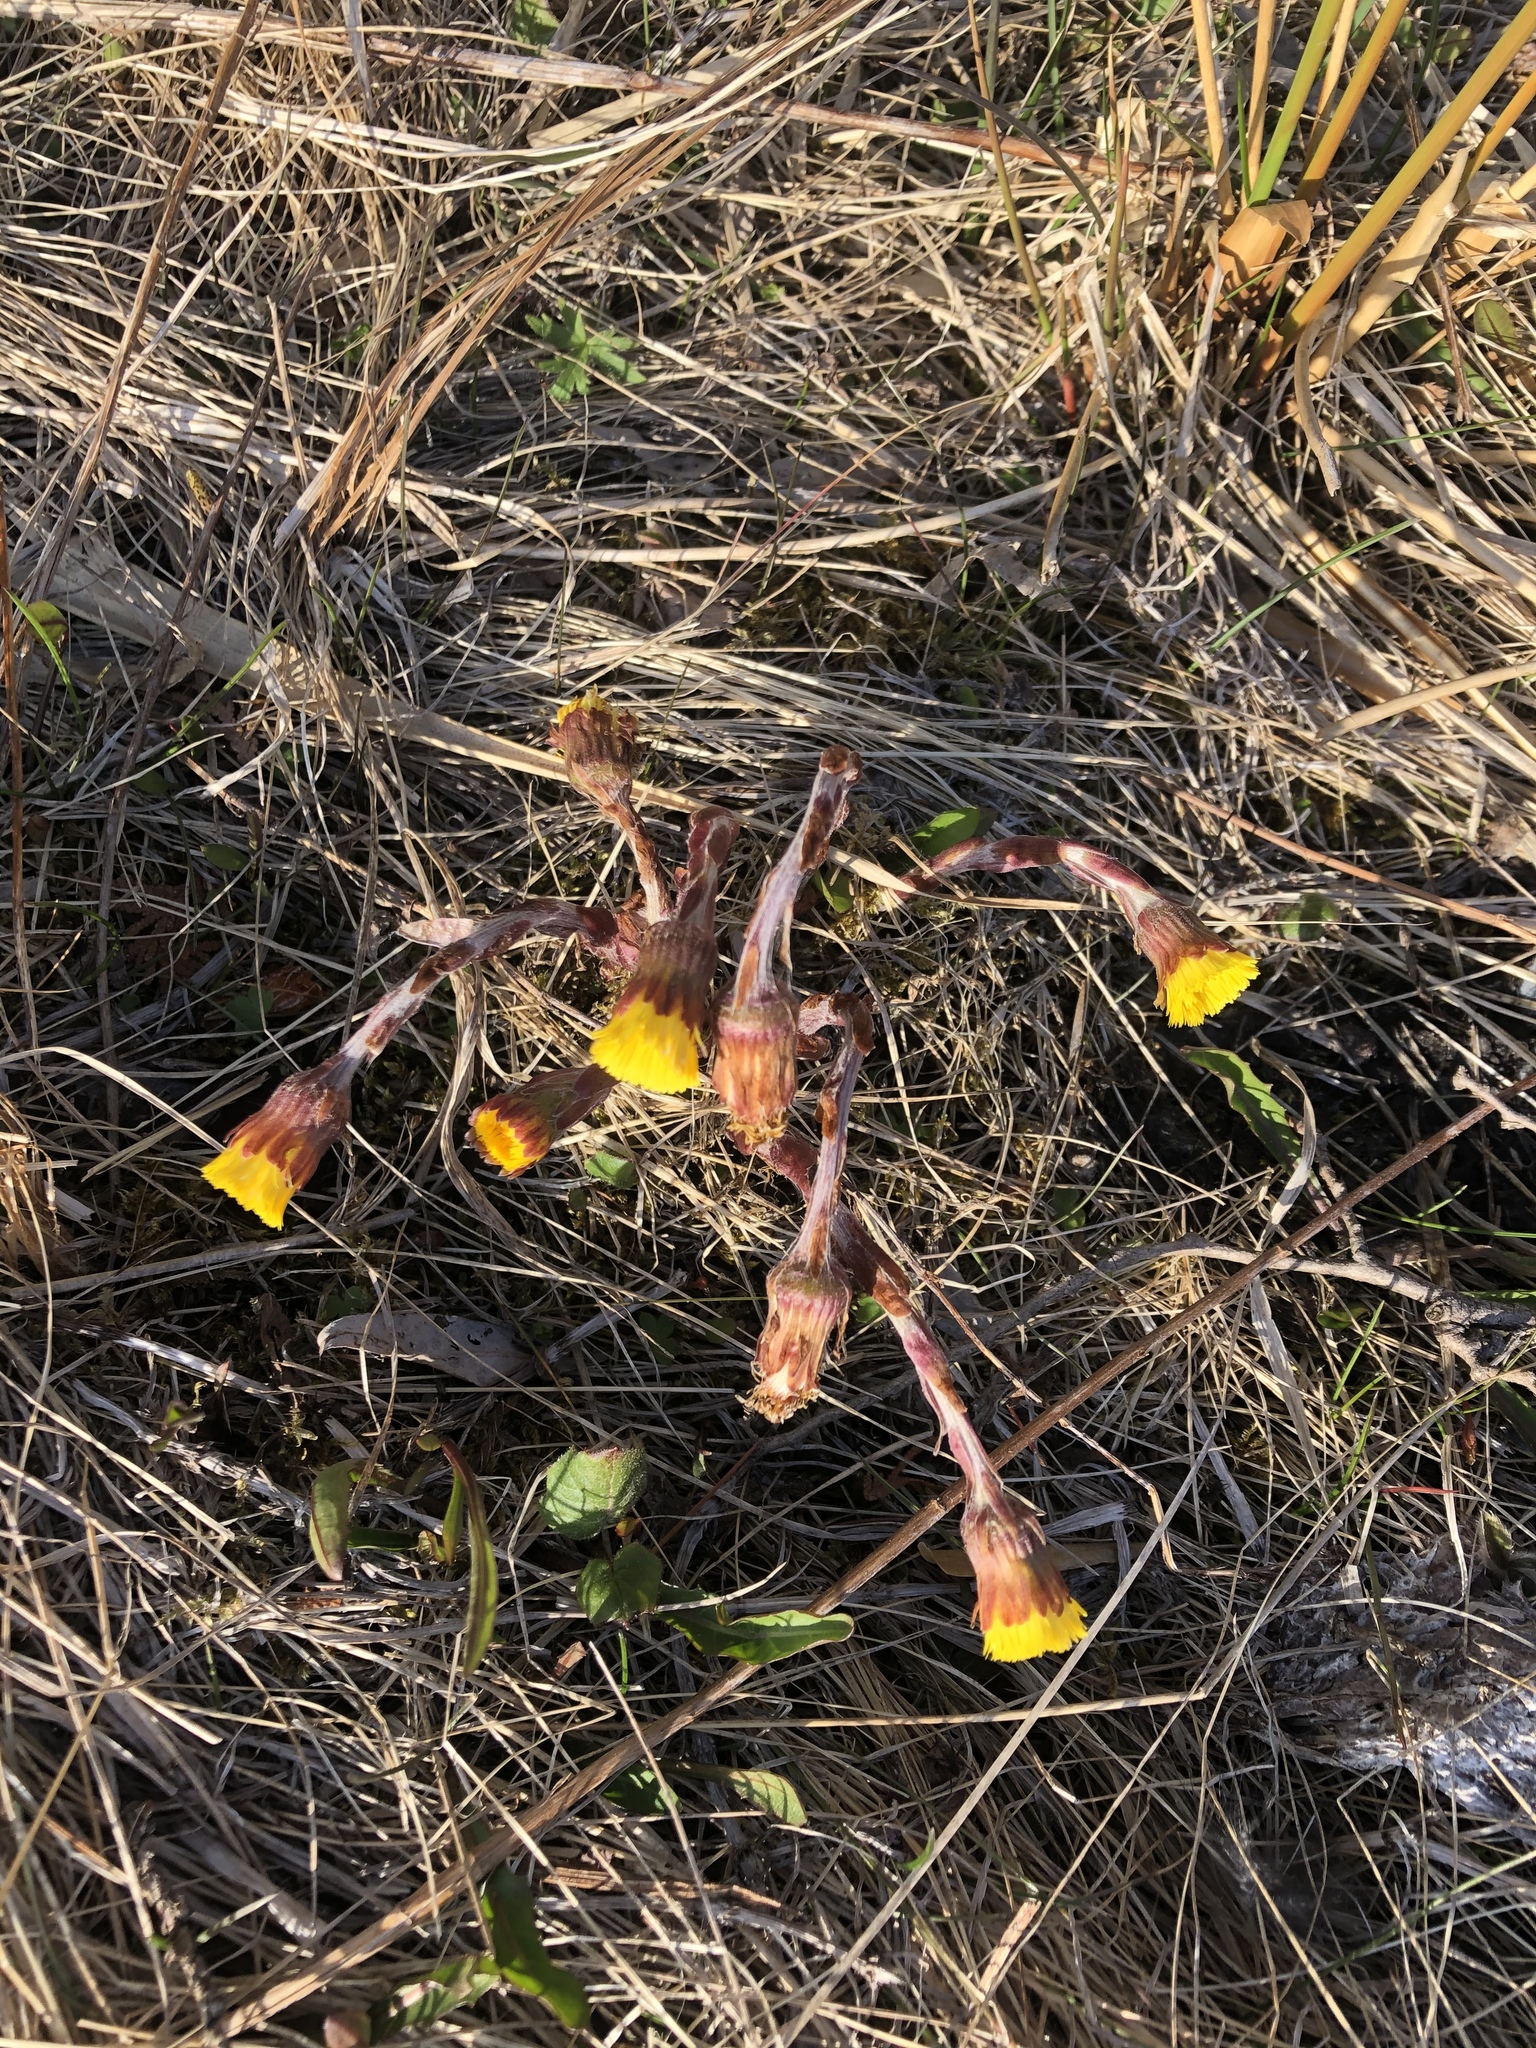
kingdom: Plantae
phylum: Tracheophyta
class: Magnoliopsida
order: Asterales
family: Asteraceae
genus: Tussilago
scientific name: Tussilago farfara
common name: Coltsfoot
